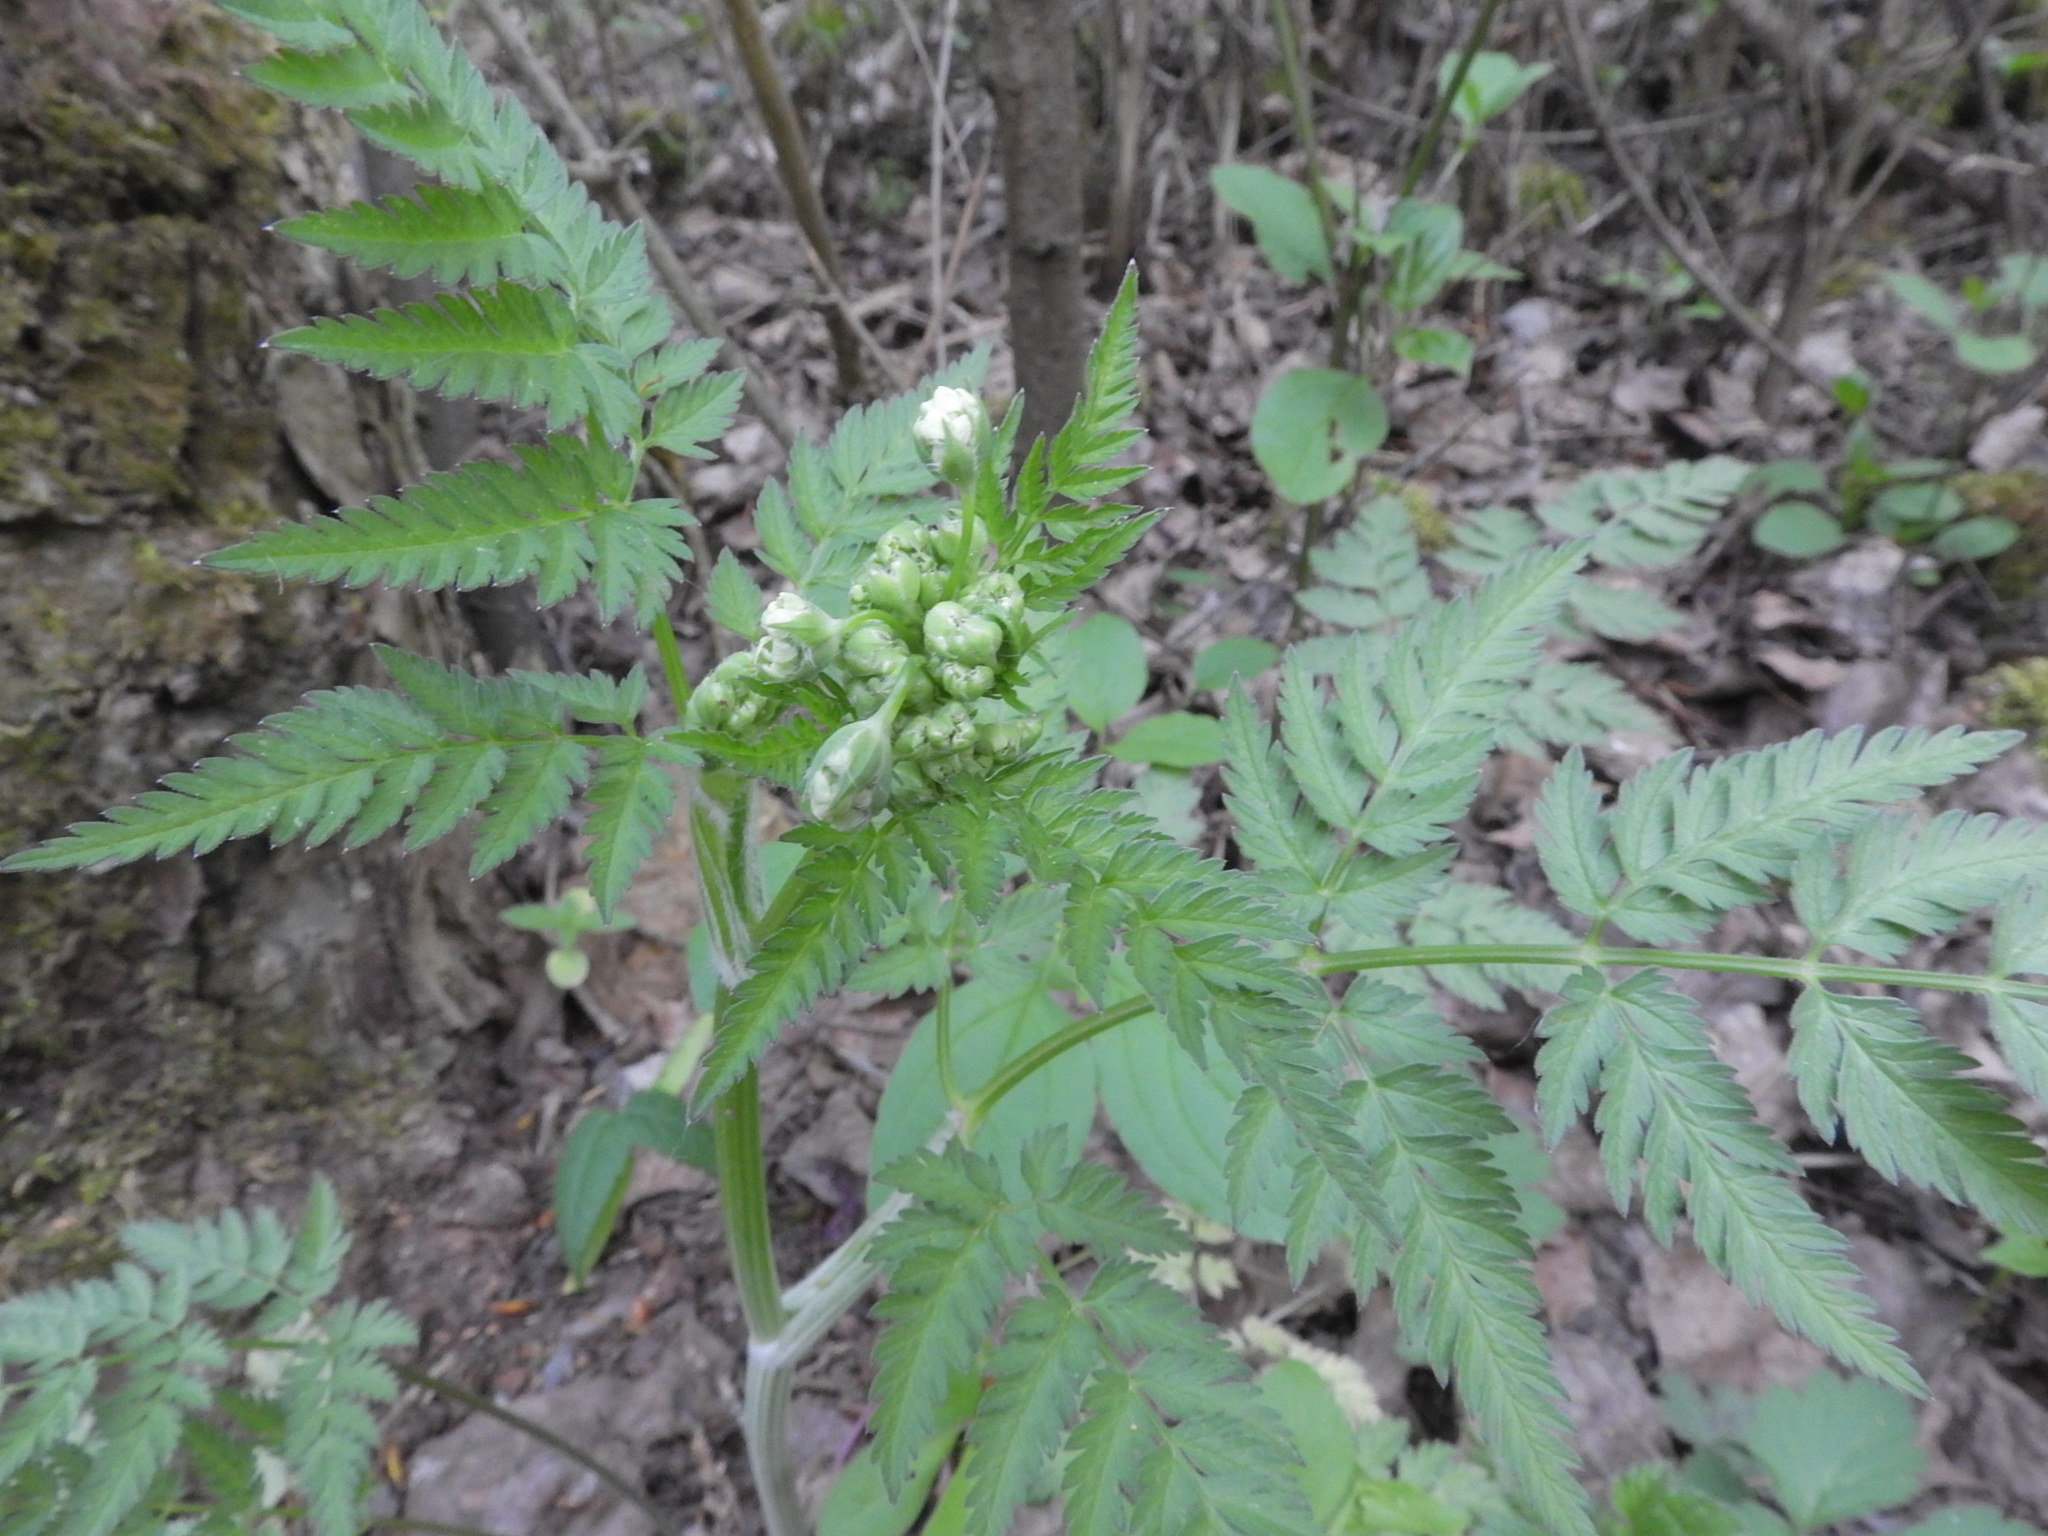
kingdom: Plantae
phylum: Tracheophyta
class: Magnoliopsida
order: Apiales
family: Apiaceae
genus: Anthriscus
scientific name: Anthriscus sylvestris
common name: Cow parsley
